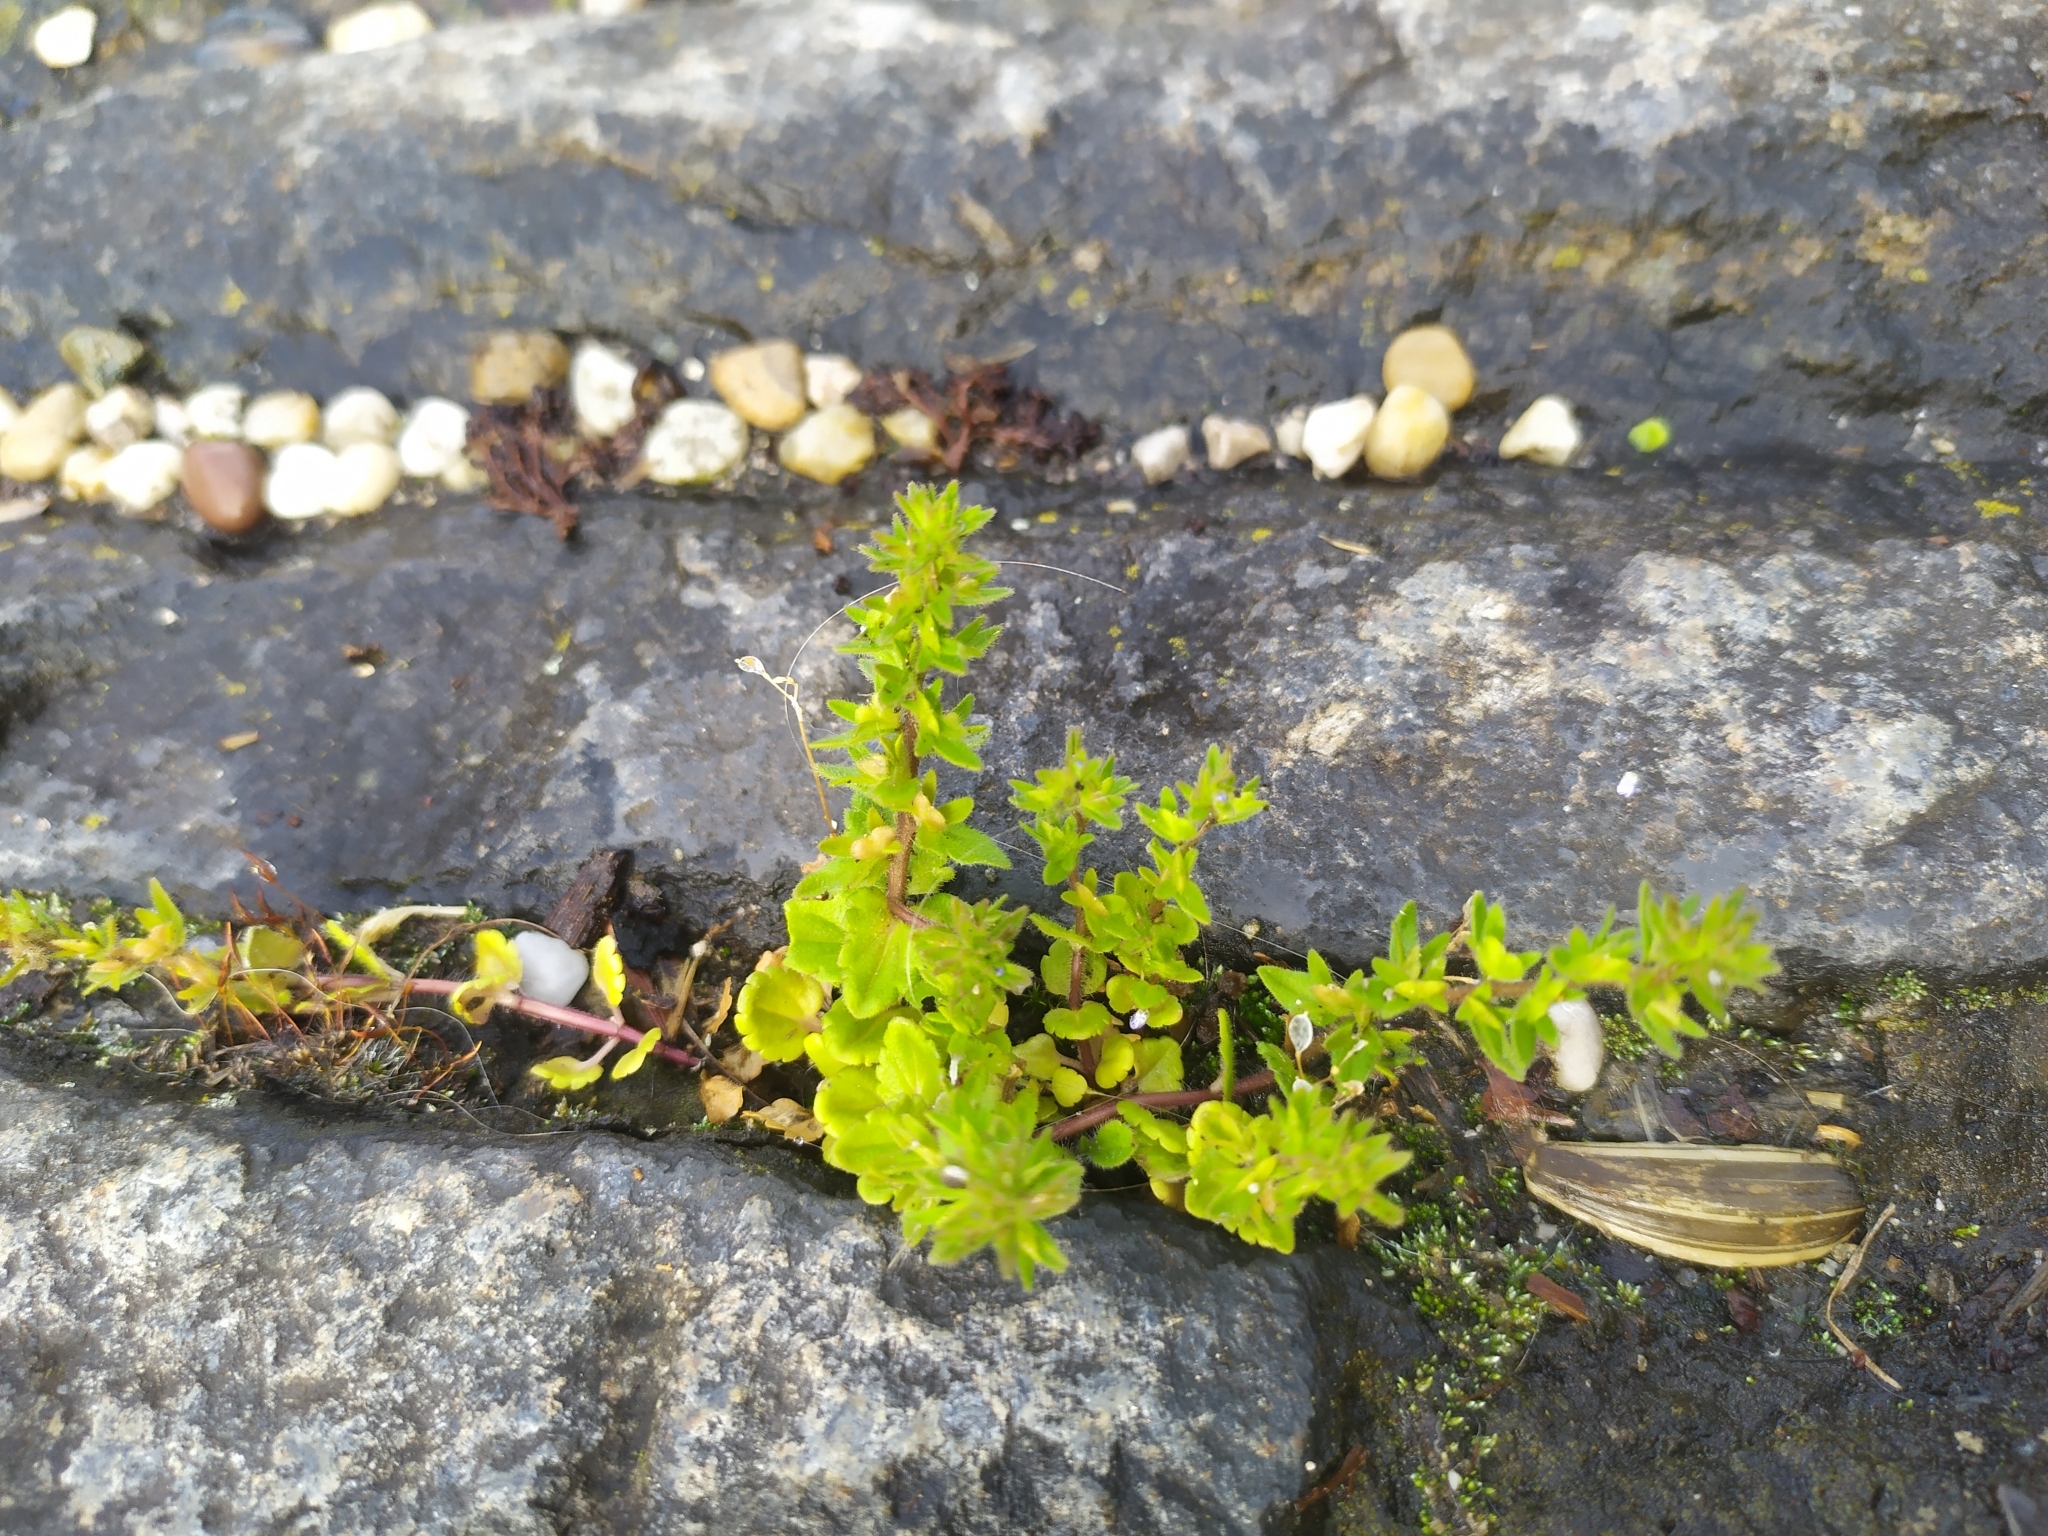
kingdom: Plantae
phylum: Tracheophyta
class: Magnoliopsida
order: Lamiales
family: Plantaginaceae
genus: Veronica
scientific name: Veronica arvensis
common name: Corn speedwell
